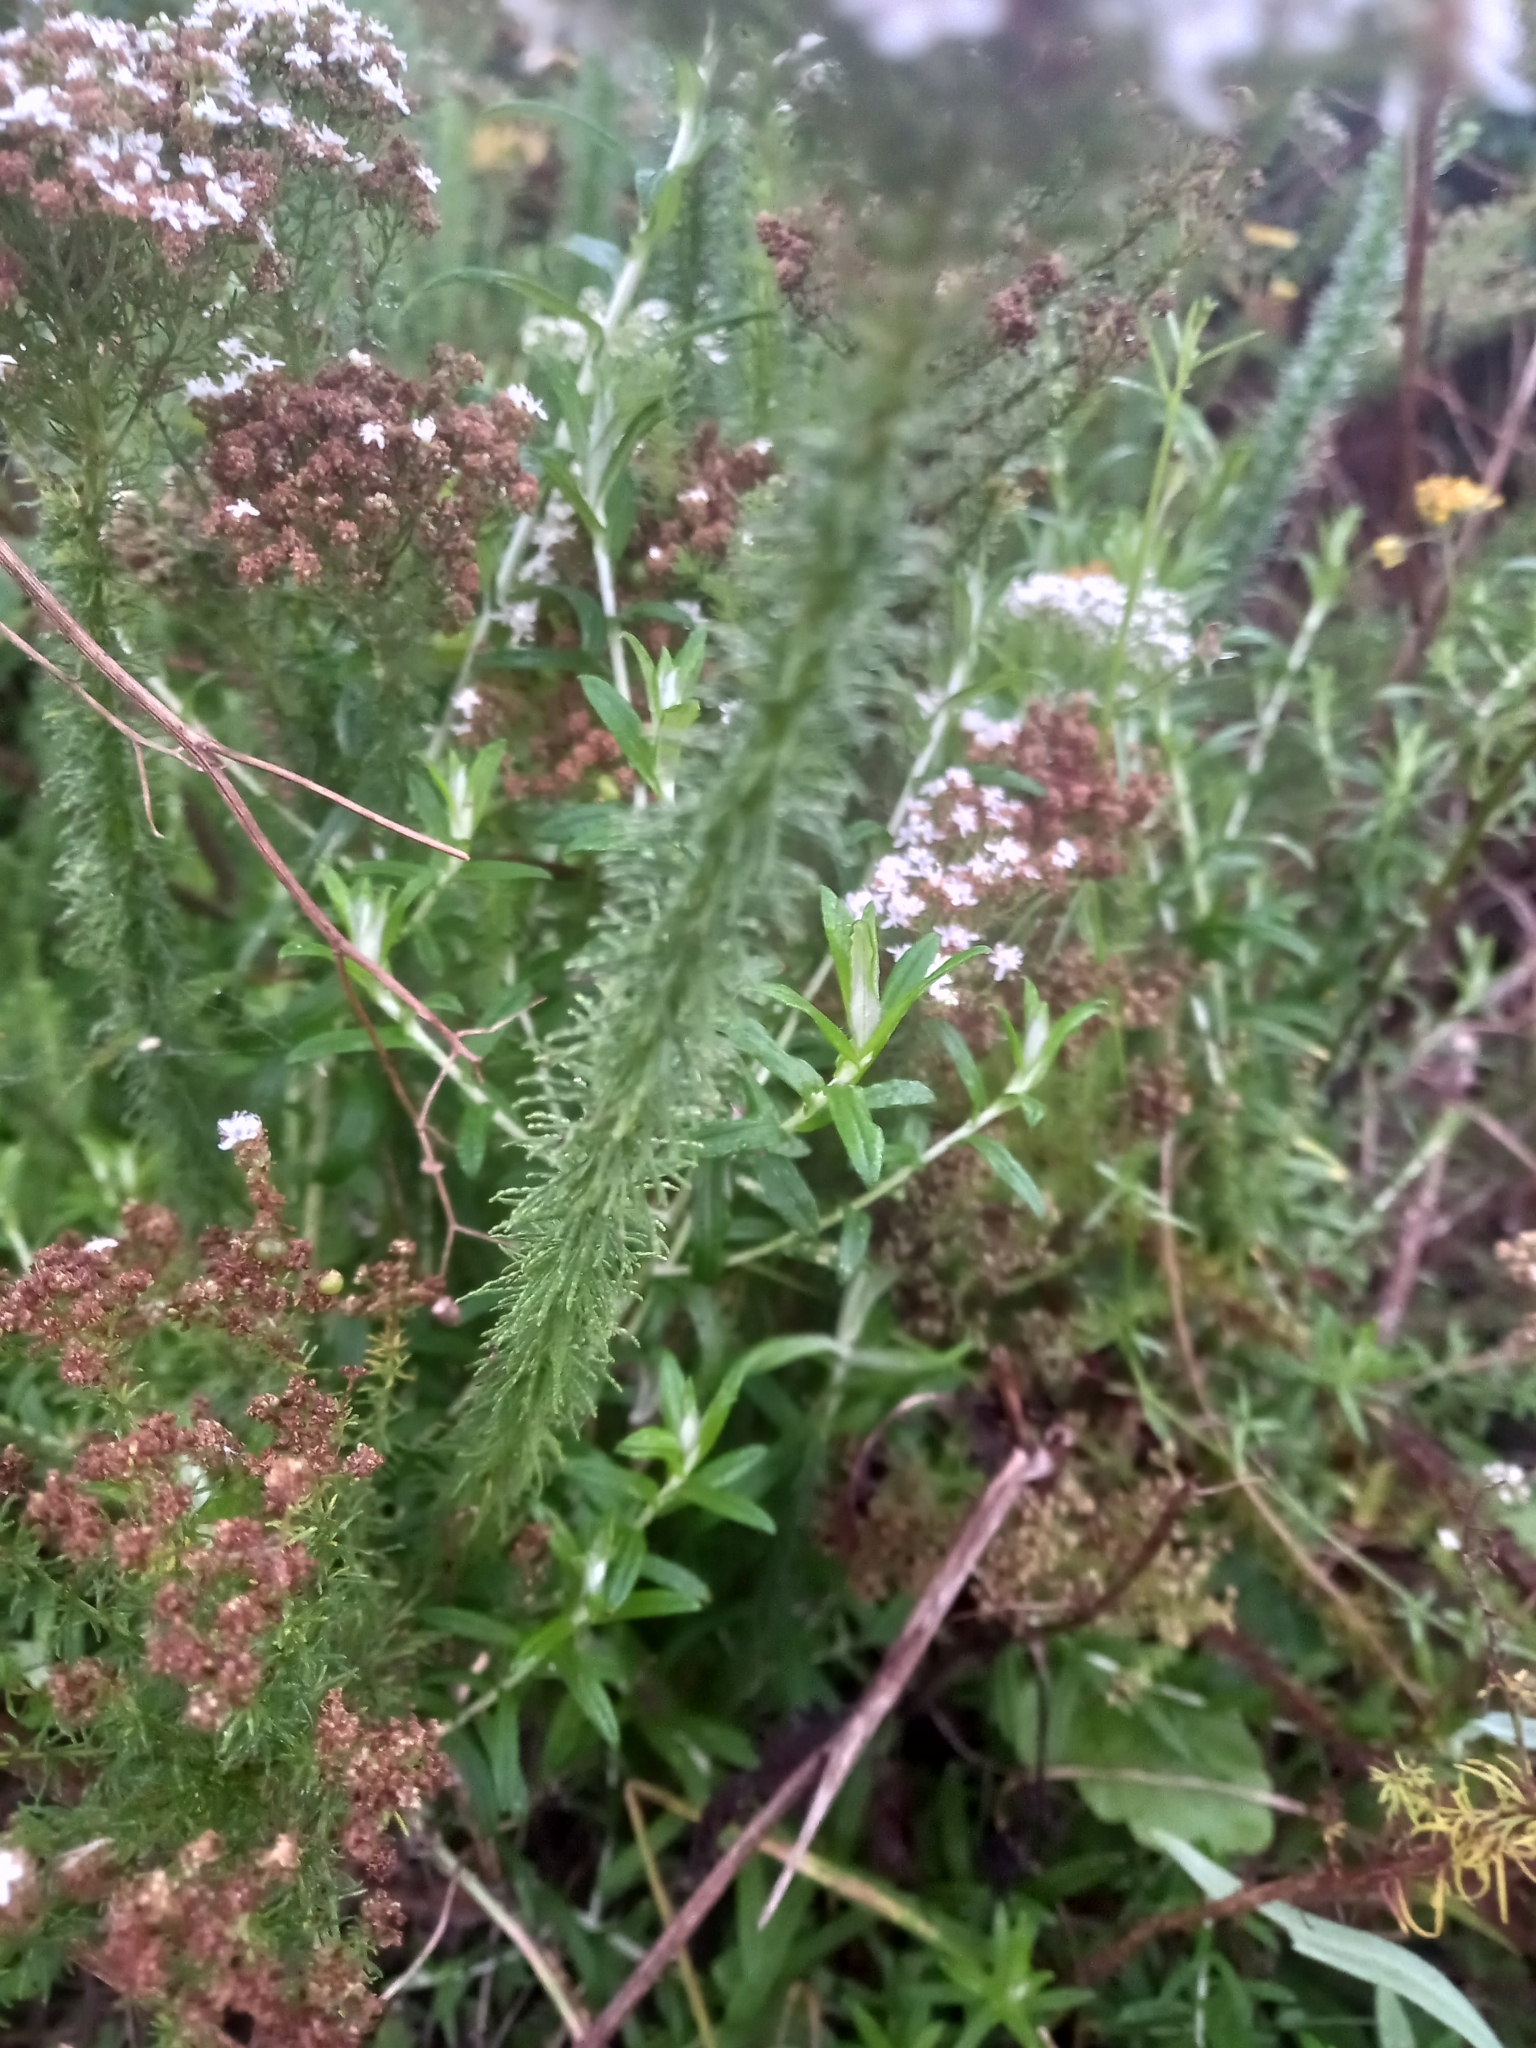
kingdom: Plantae
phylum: Tracheophyta
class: Magnoliopsida
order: Lamiales
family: Scrophulariaceae
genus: Selago
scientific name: Selago corymbosa
